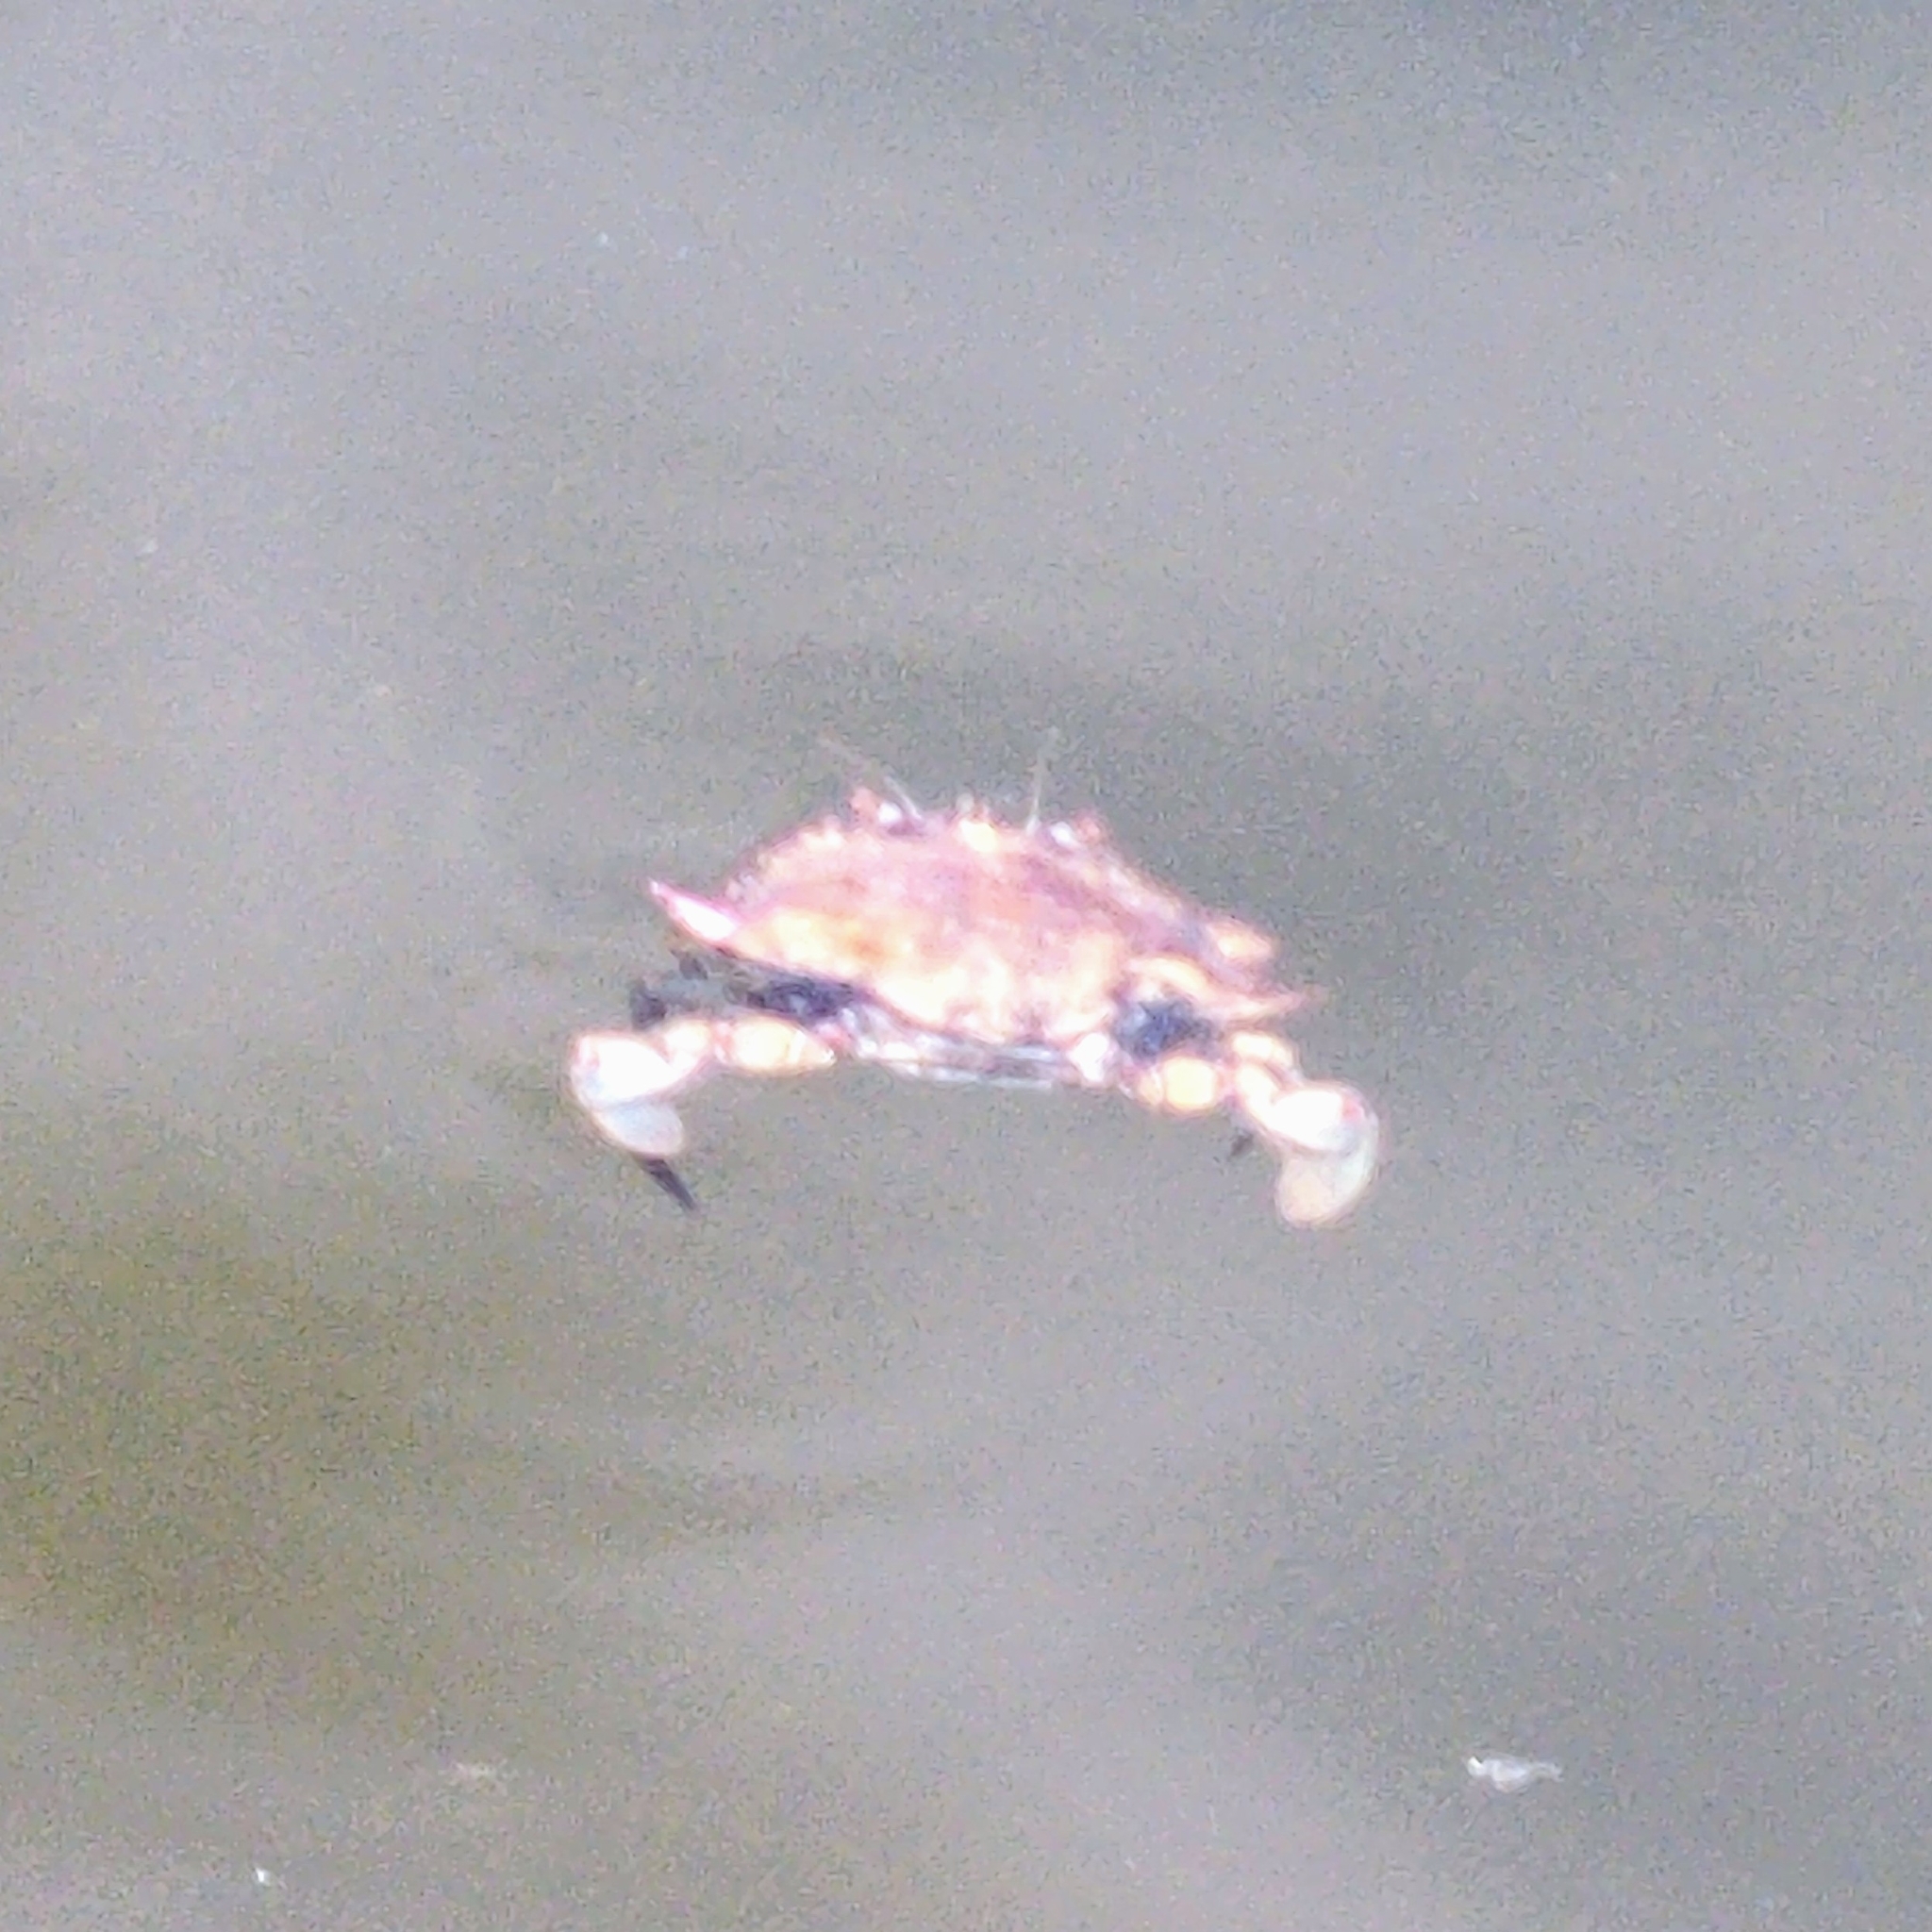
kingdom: Animalia
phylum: Arthropoda
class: Malacostraca
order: Decapoda
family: Portunidae
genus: Callinectes
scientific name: Callinectes sapidus
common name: Blue crab
